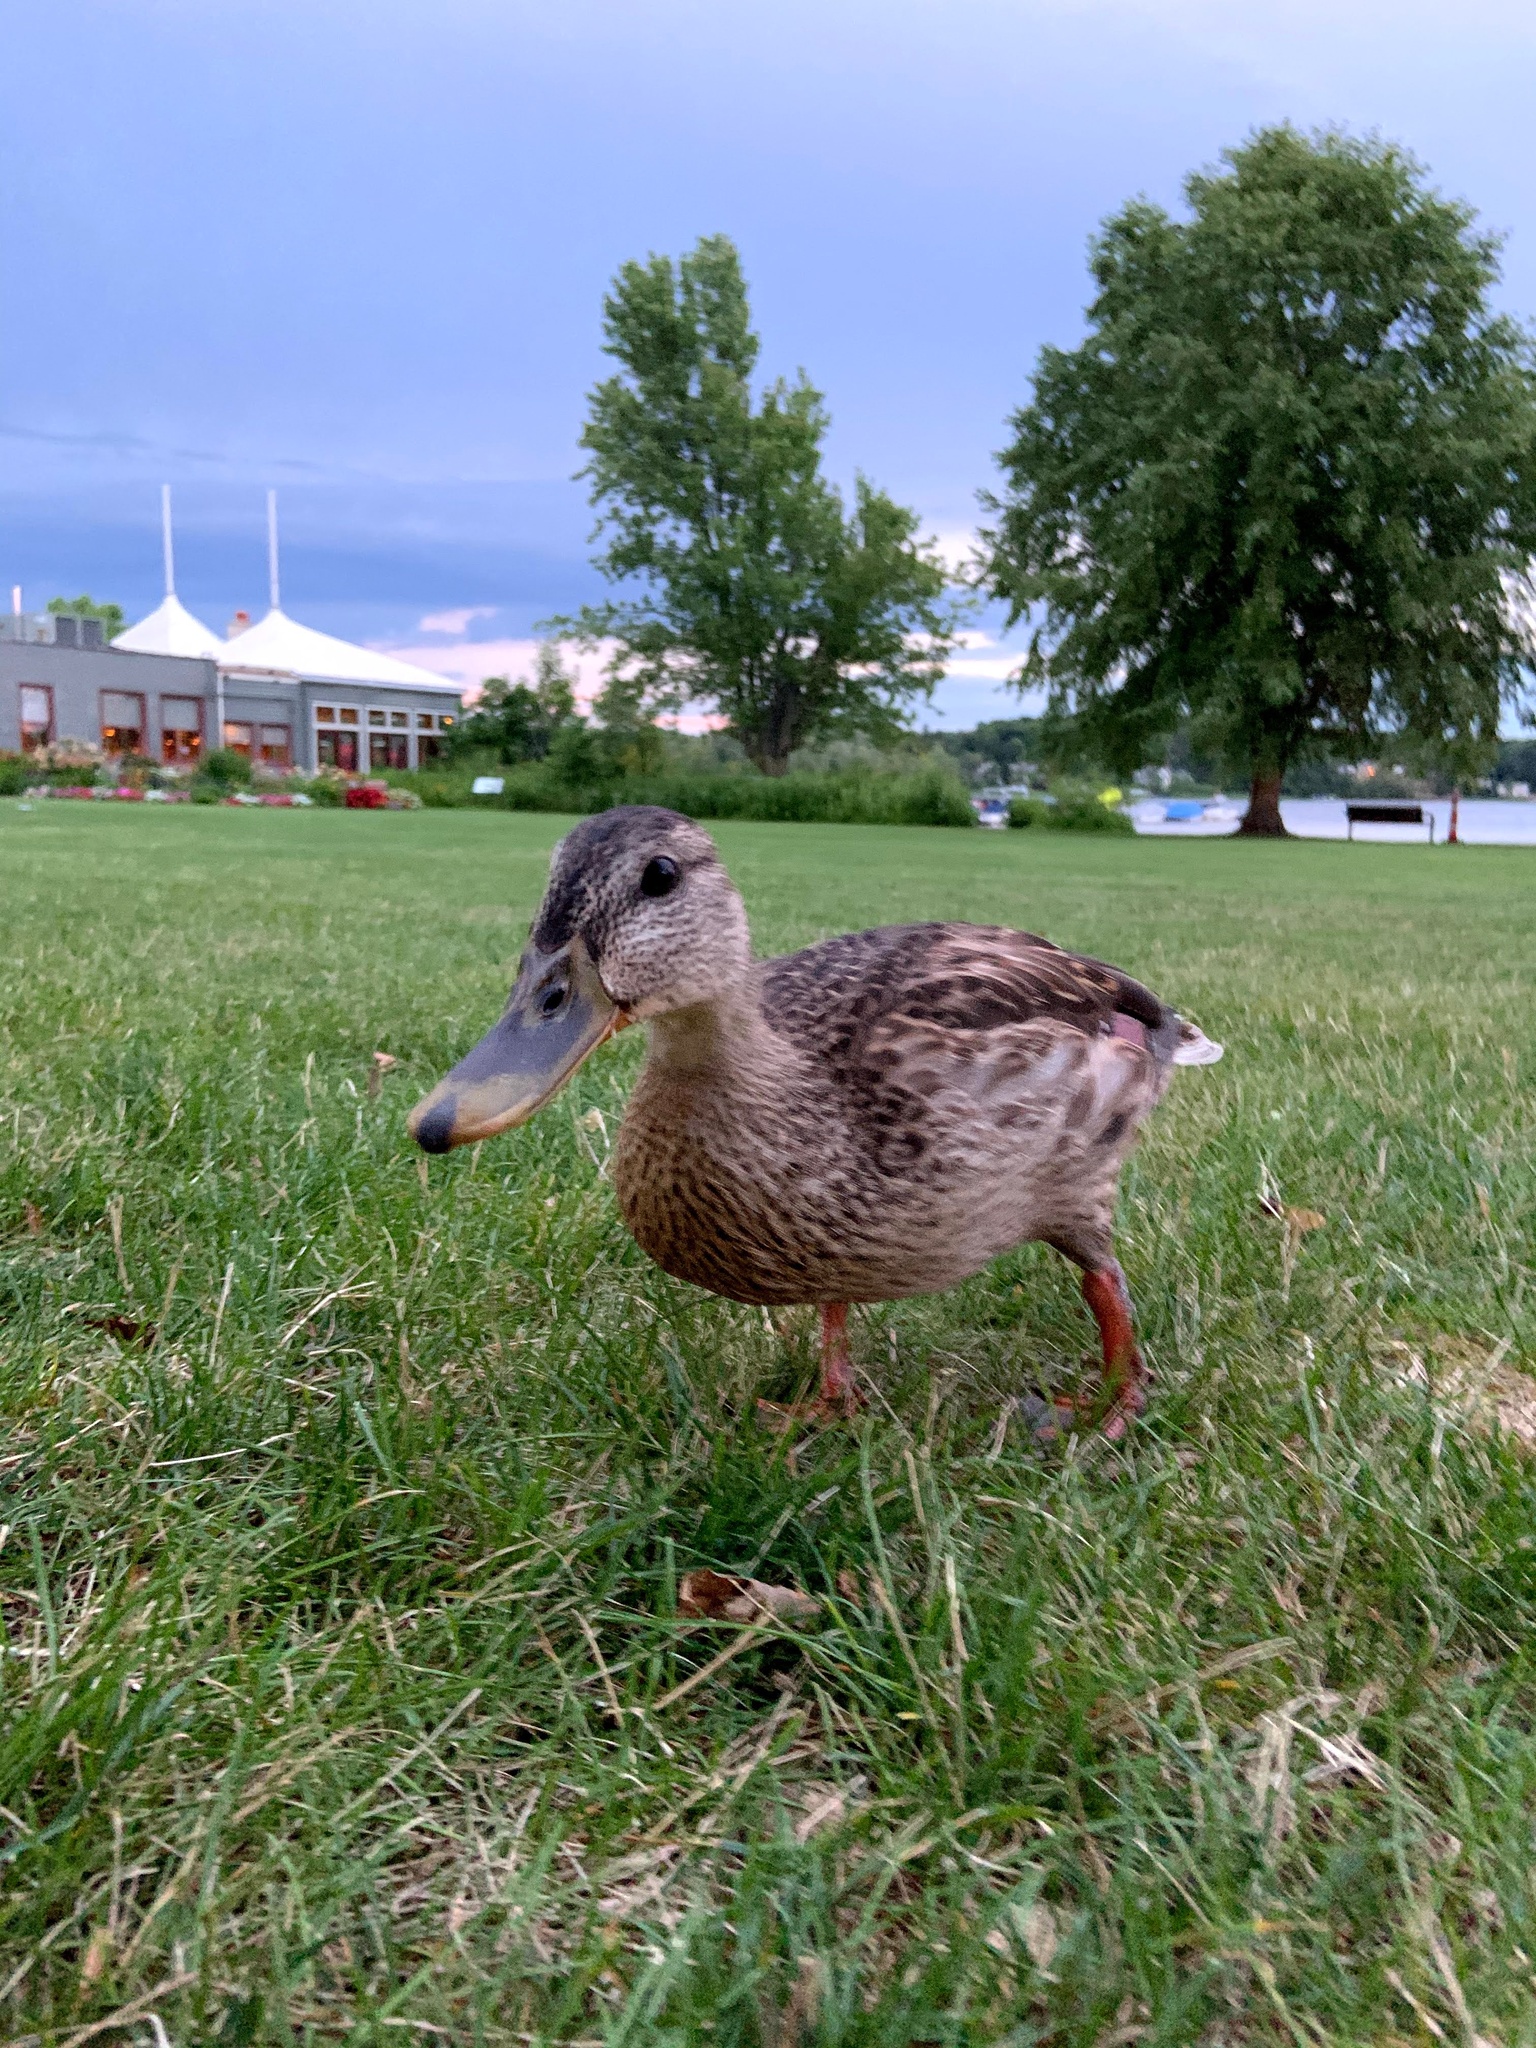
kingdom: Animalia
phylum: Chordata
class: Aves
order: Anseriformes
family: Anatidae
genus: Anas
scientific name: Anas platyrhynchos
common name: Mallard
